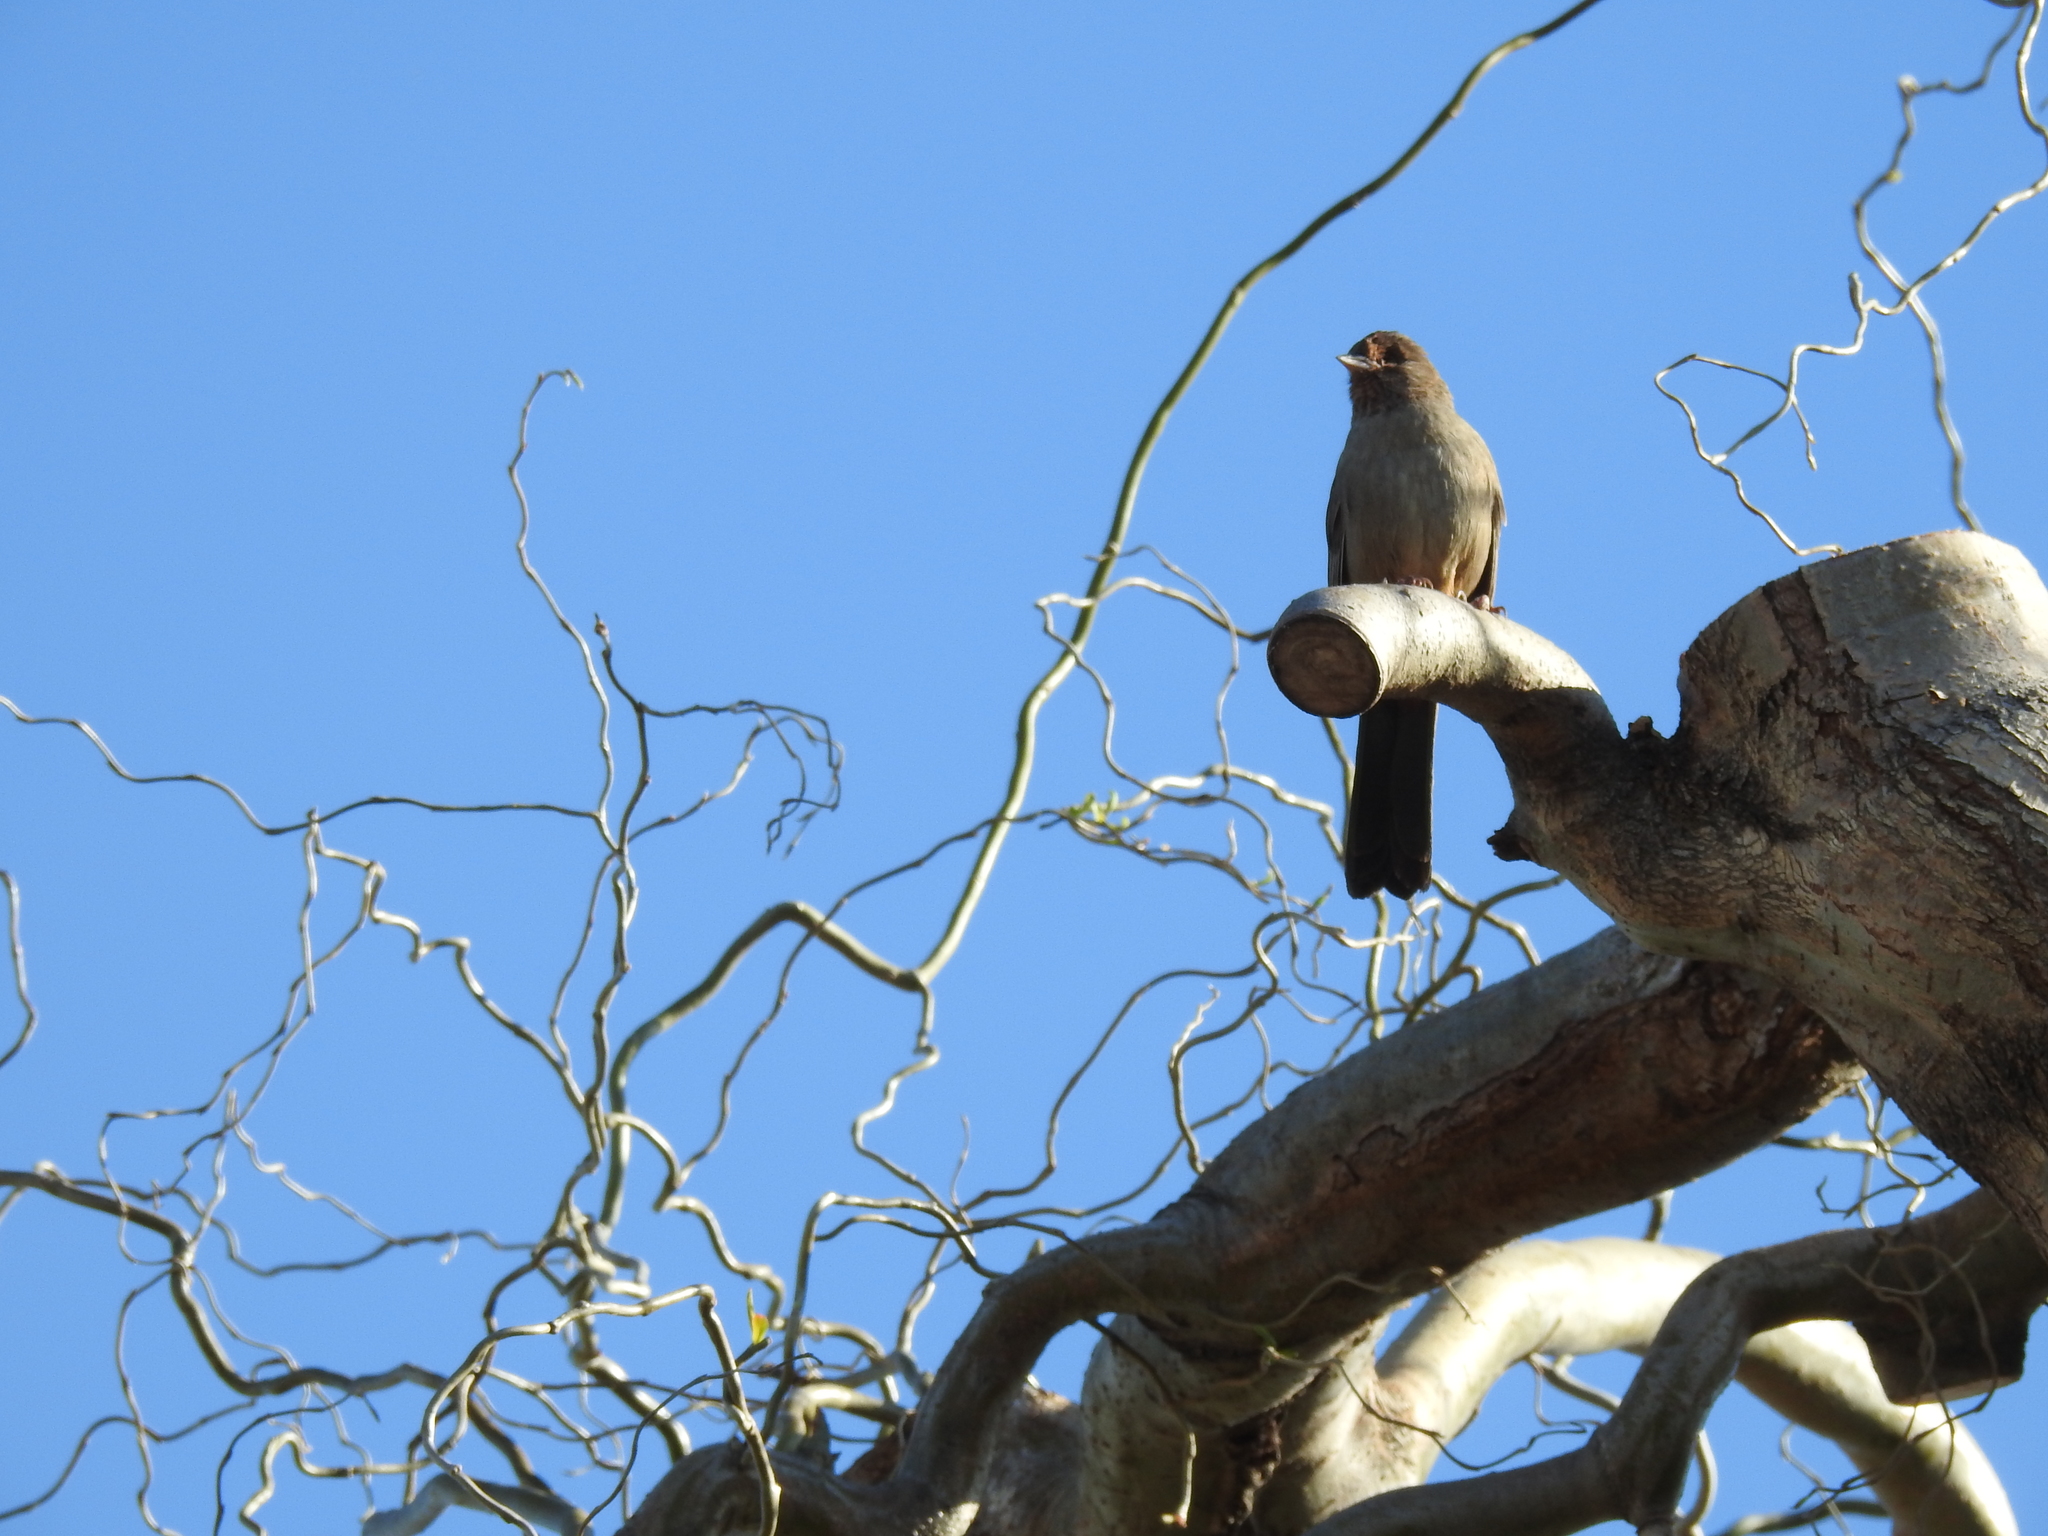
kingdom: Animalia
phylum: Chordata
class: Aves
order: Passeriformes
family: Passerellidae
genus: Melozone
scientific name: Melozone crissalis
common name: California towhee
